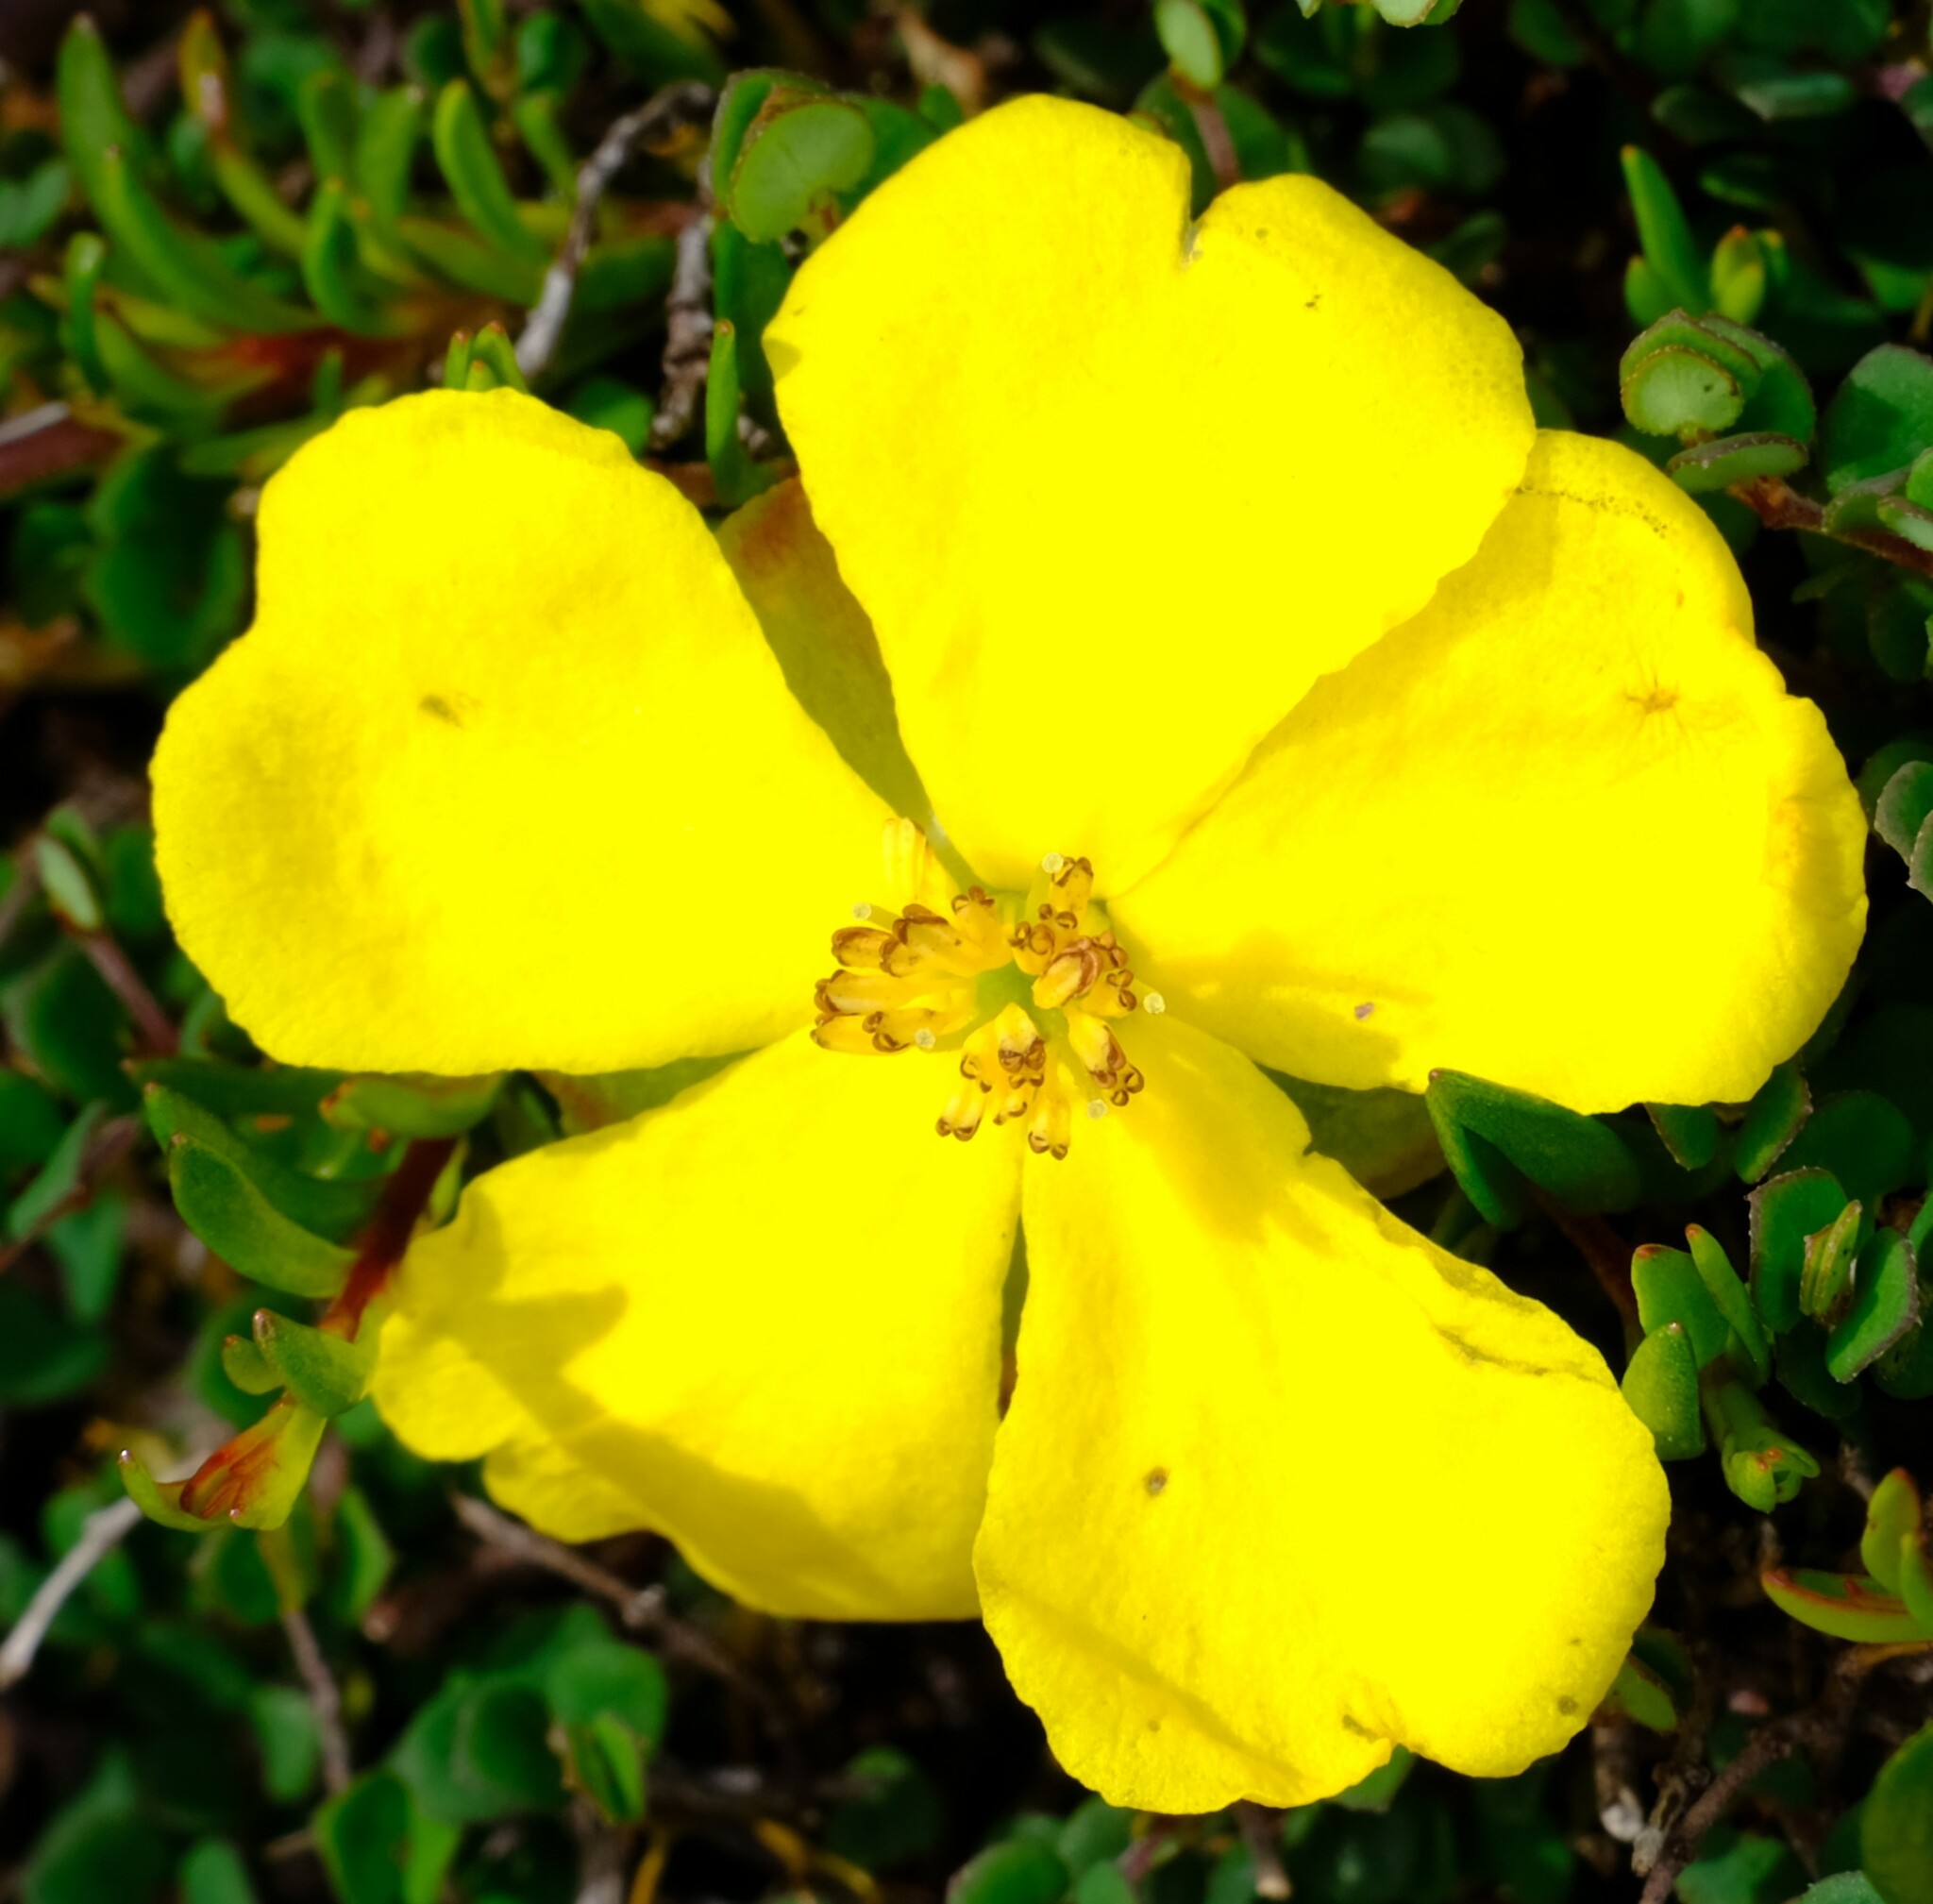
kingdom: Plantae
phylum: Tracheophyta
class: Magnoliopsida
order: Dilleniales
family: Dilleniaceae
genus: Hibbertia
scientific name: Hibbertia procumbens
